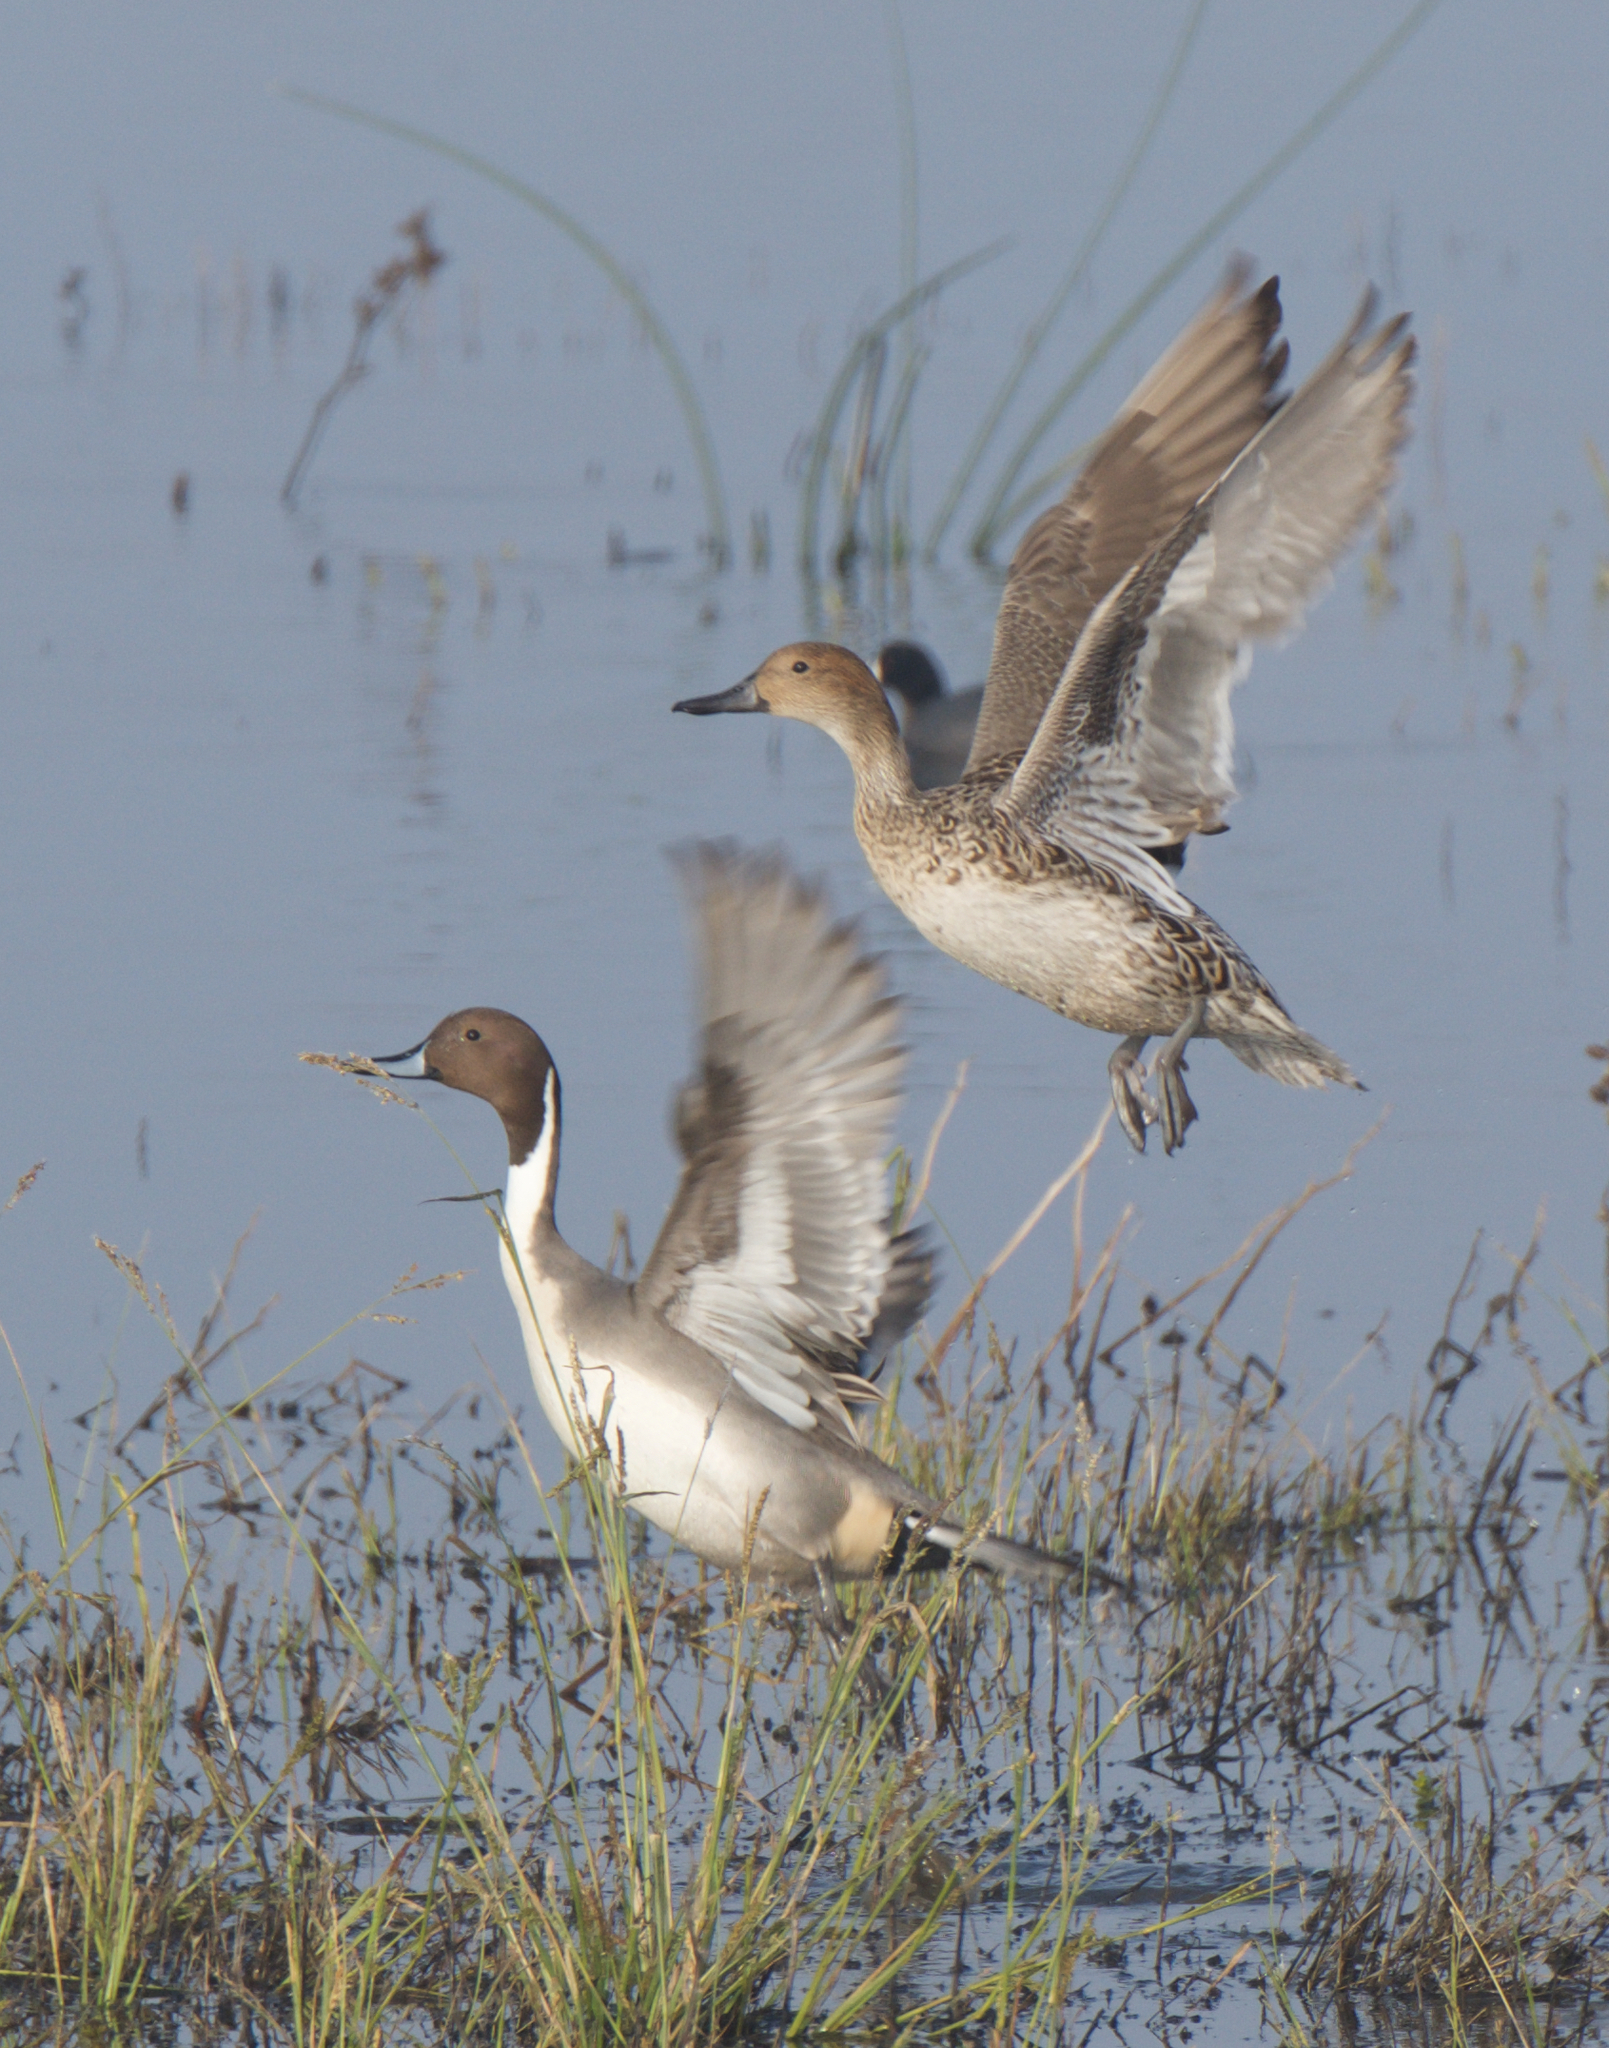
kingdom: Animalia
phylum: Chordata
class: Aves
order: Anseriformes
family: Anatidae
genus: Anas
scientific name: Anas acuta
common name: Northern pintail
